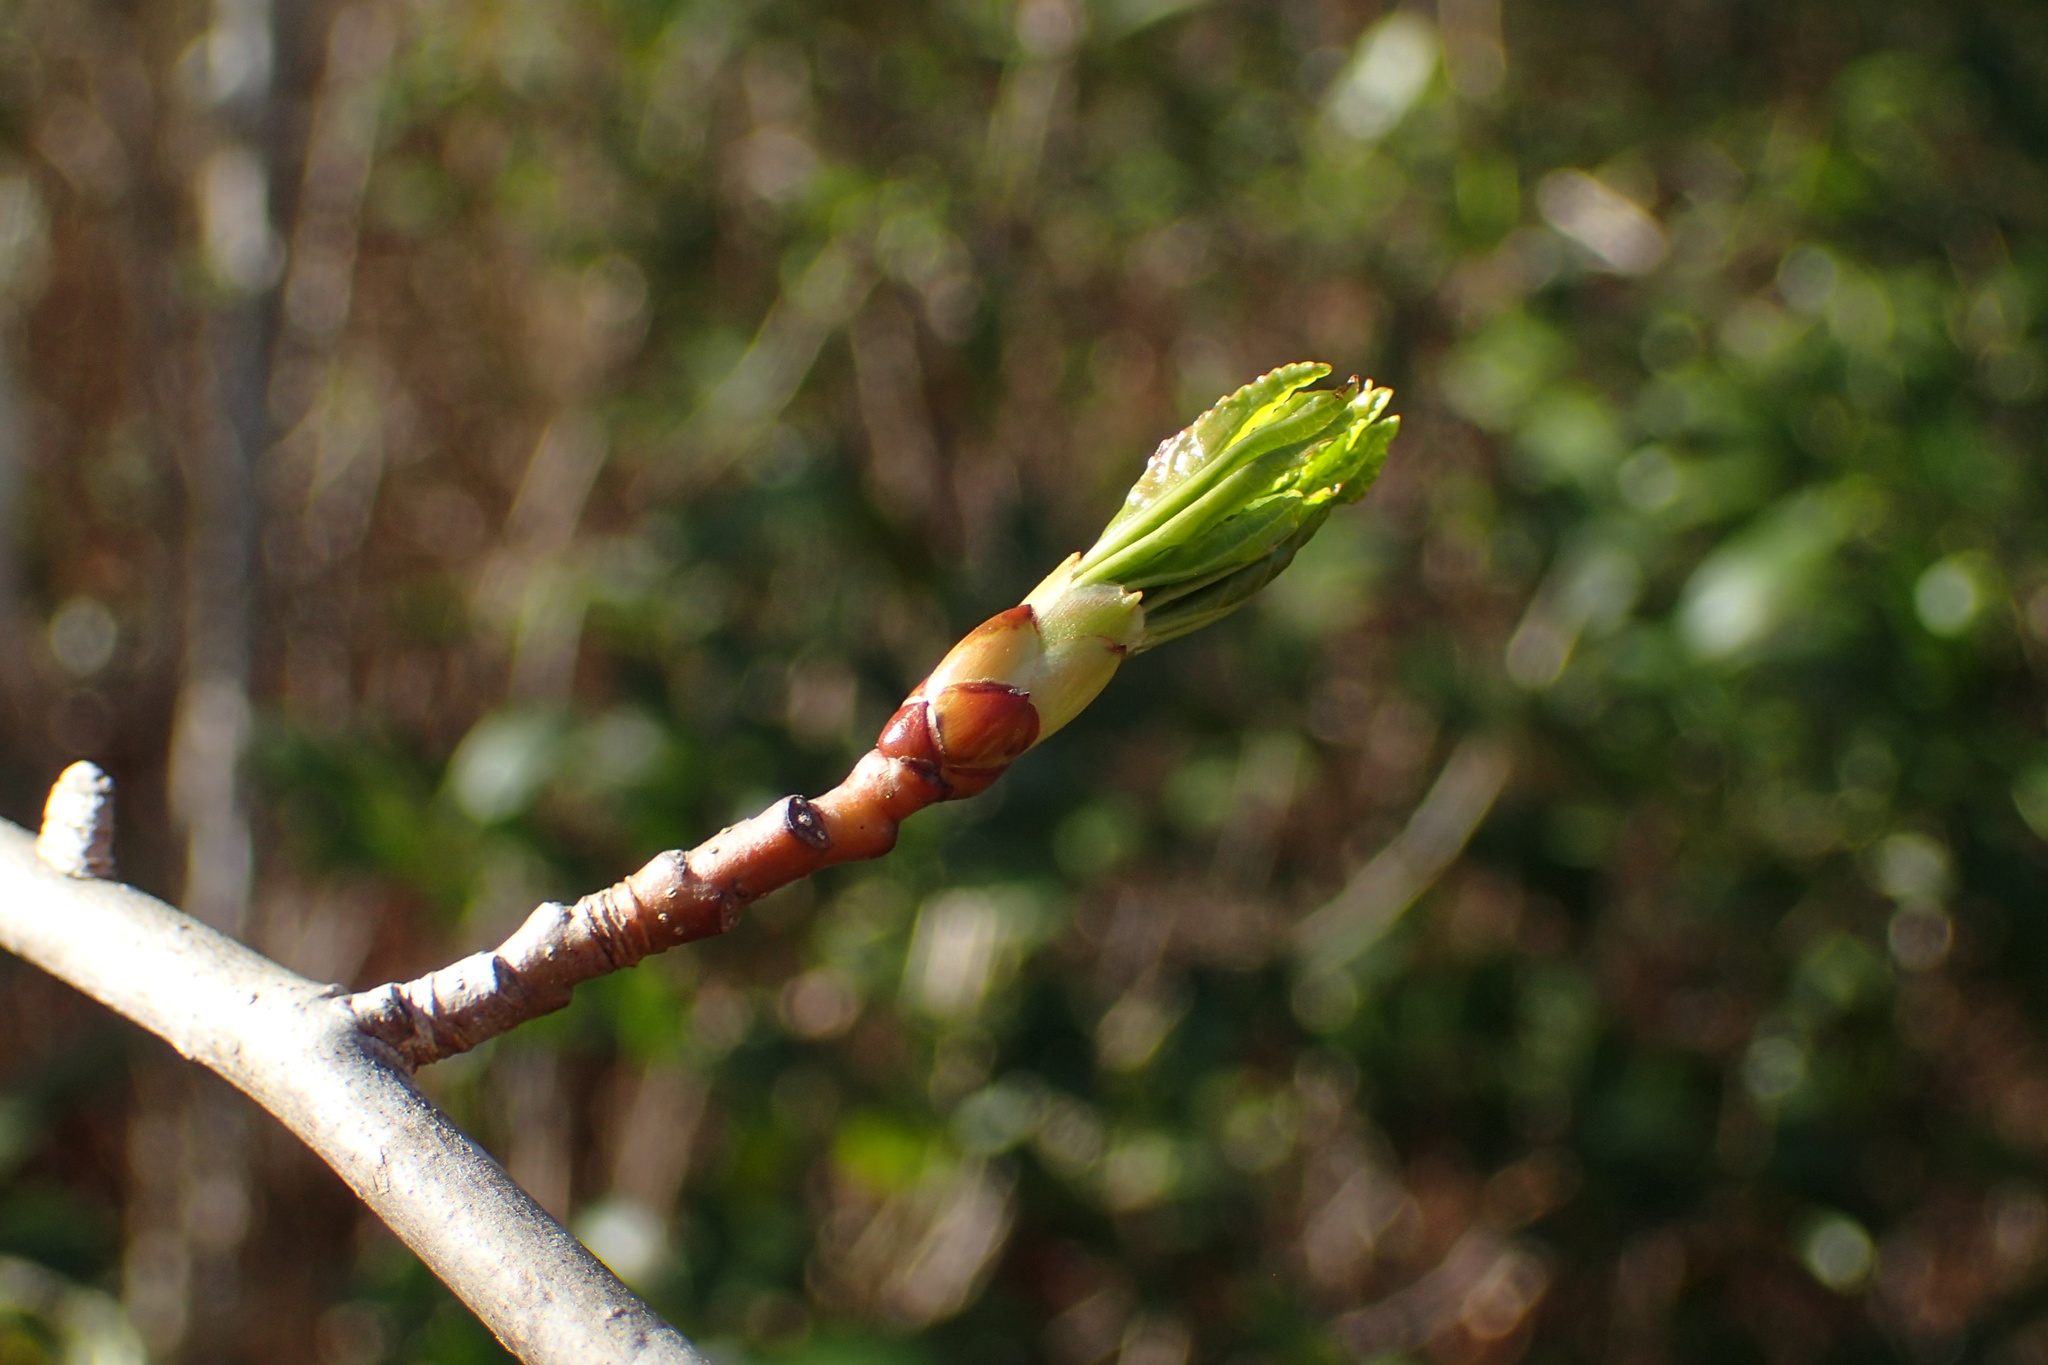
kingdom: Plantae
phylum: Tracheophyta
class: Magnoliopsida
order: Saxifragales
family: Altingiaceae
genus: Liquidambar
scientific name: Liquidambar styraciflua
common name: Sweet gum
